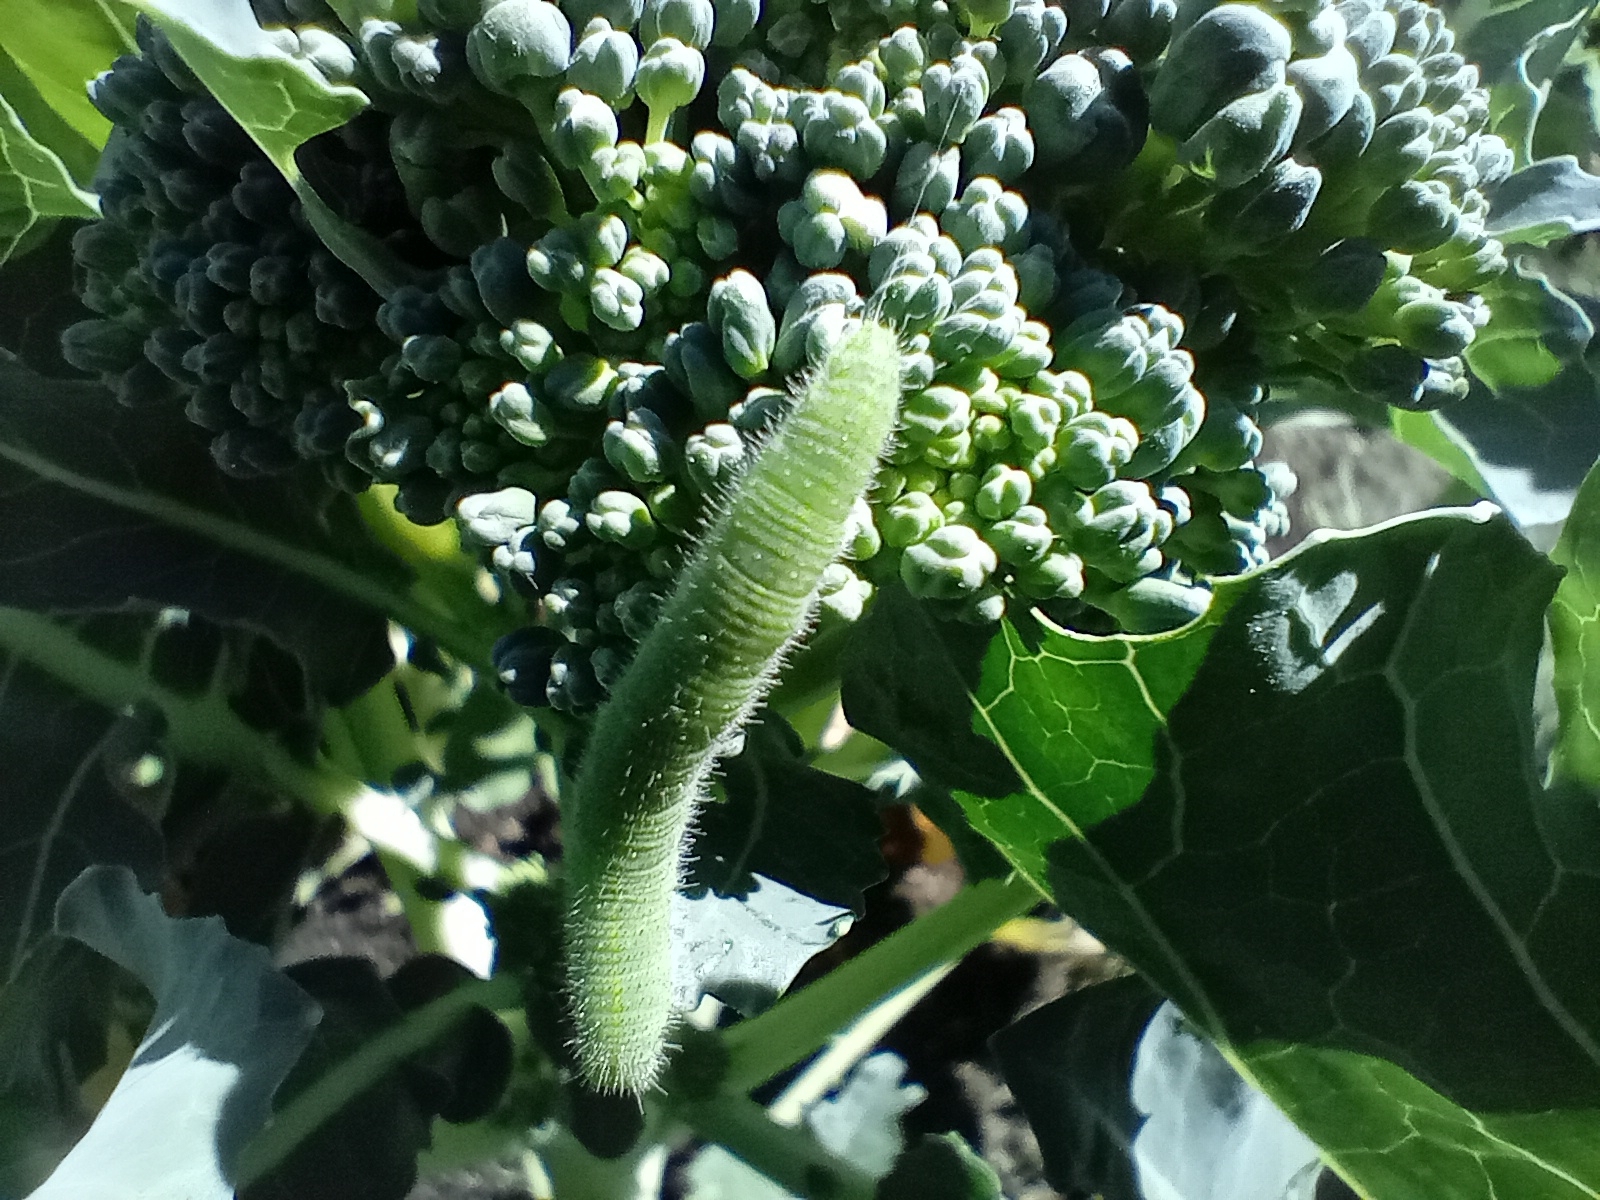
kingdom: Animalia
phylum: Arthropoda
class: Insecta
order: Lepidoptera
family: Pieridae
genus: Pieris
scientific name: Pieris rapae
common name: Small white
